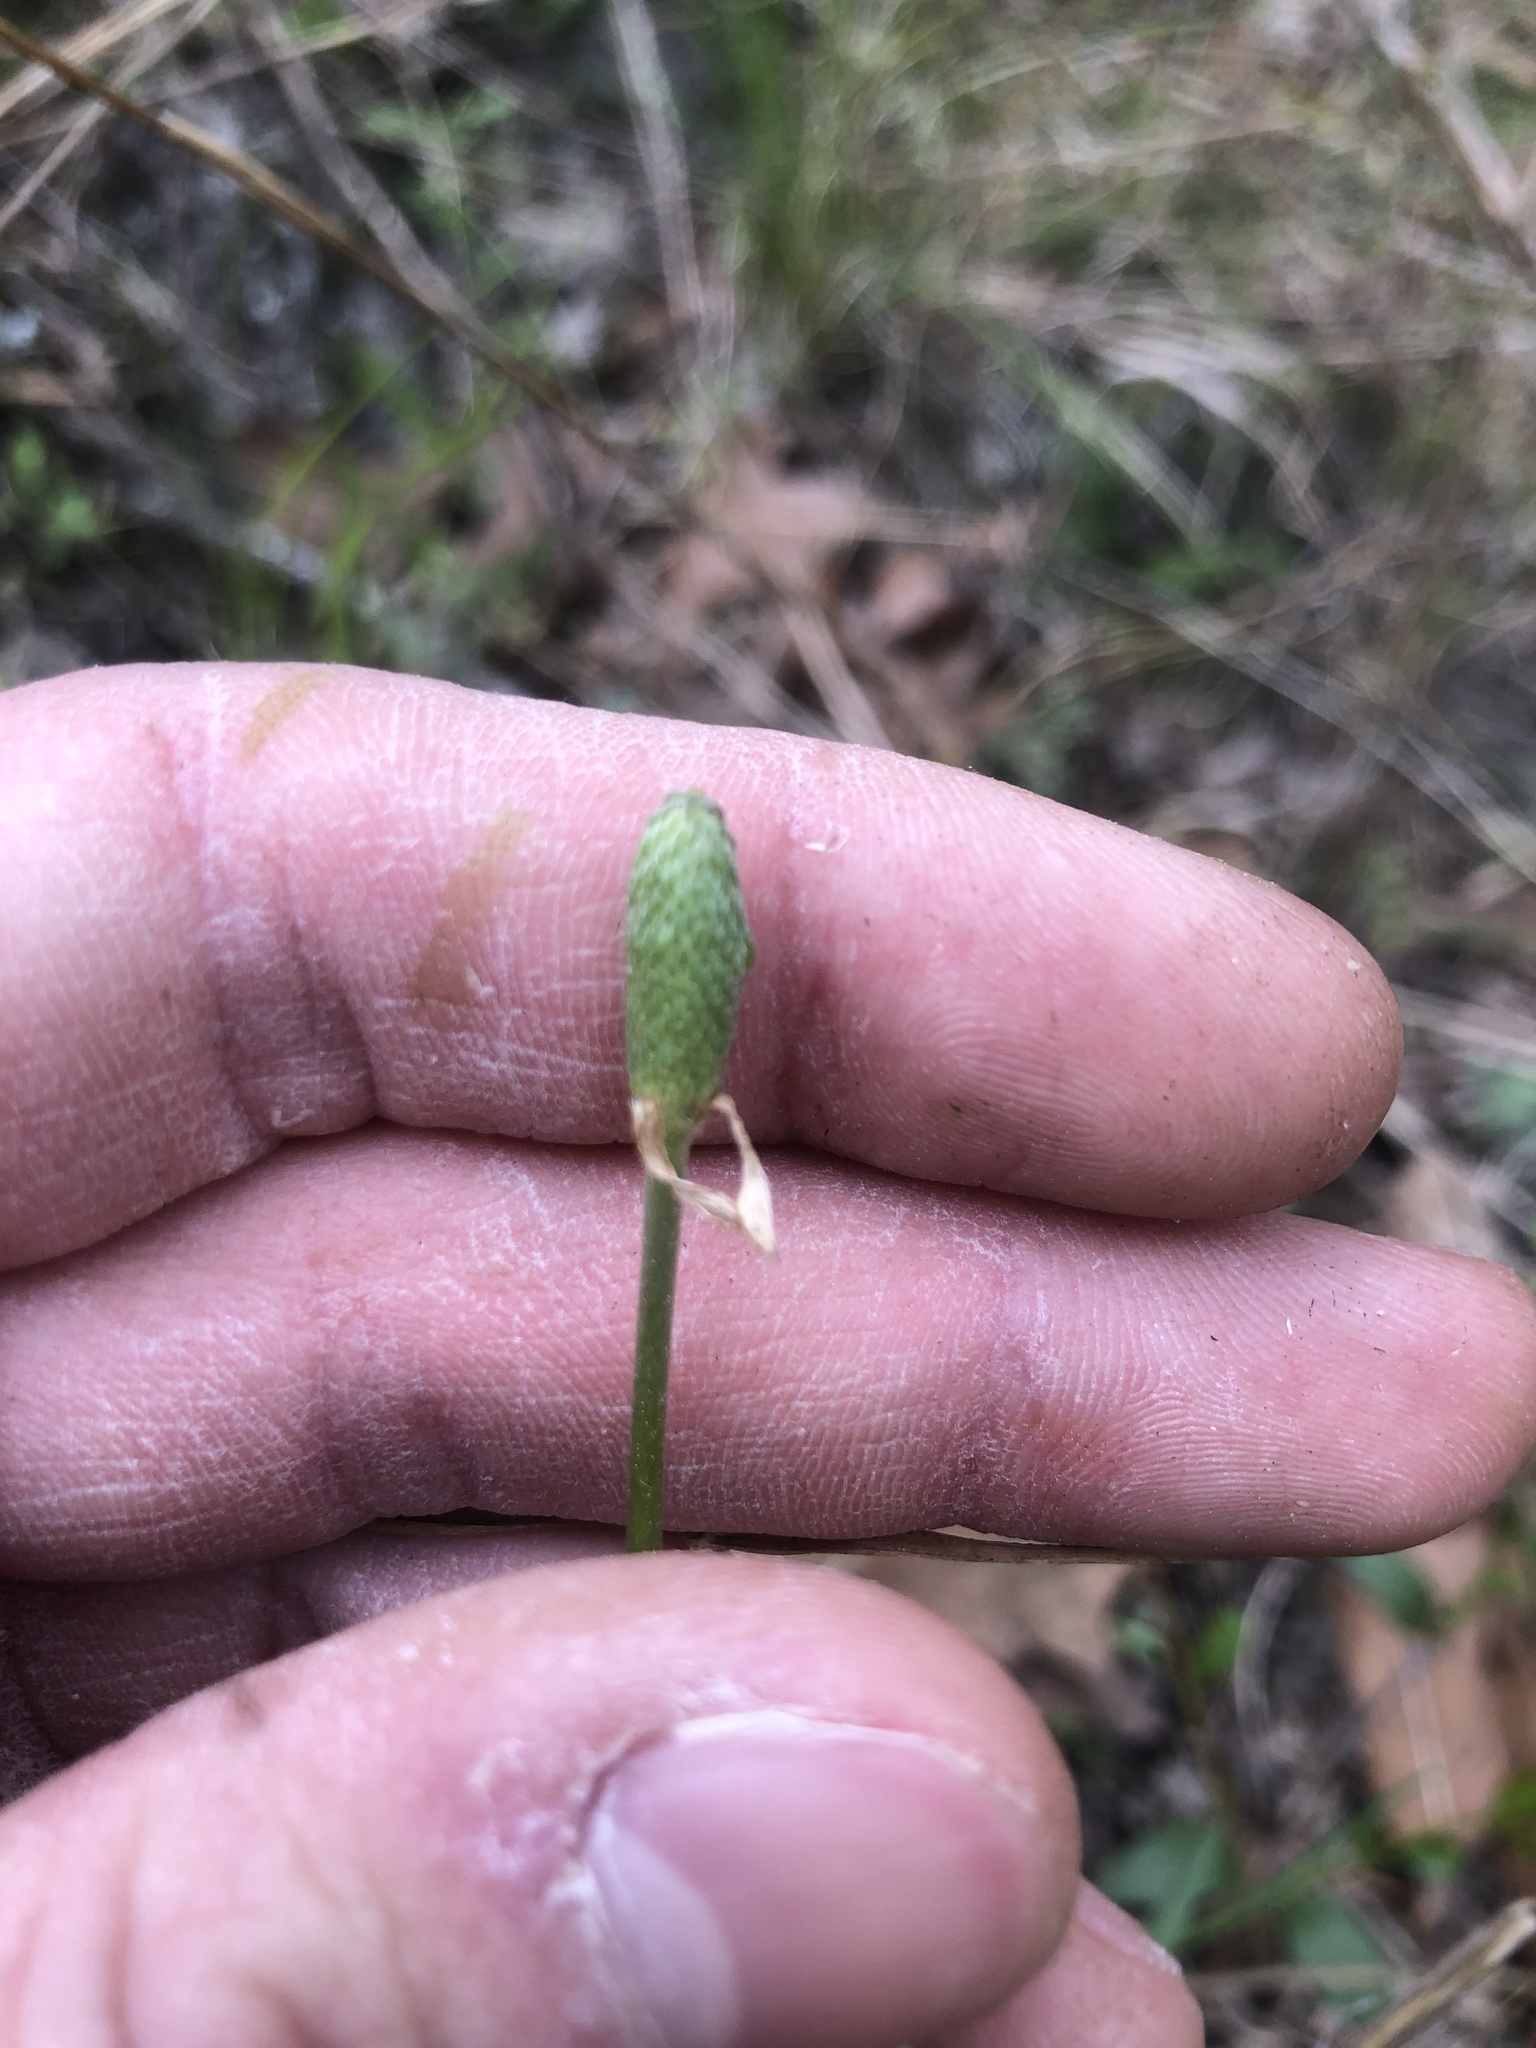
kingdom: Plantae
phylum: Tracheophyta
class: Magnoliopsida
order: Ranunculales
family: Ranunculaceae
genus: Anemone
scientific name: Anemone berlandieri
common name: Ten-petal anemone
